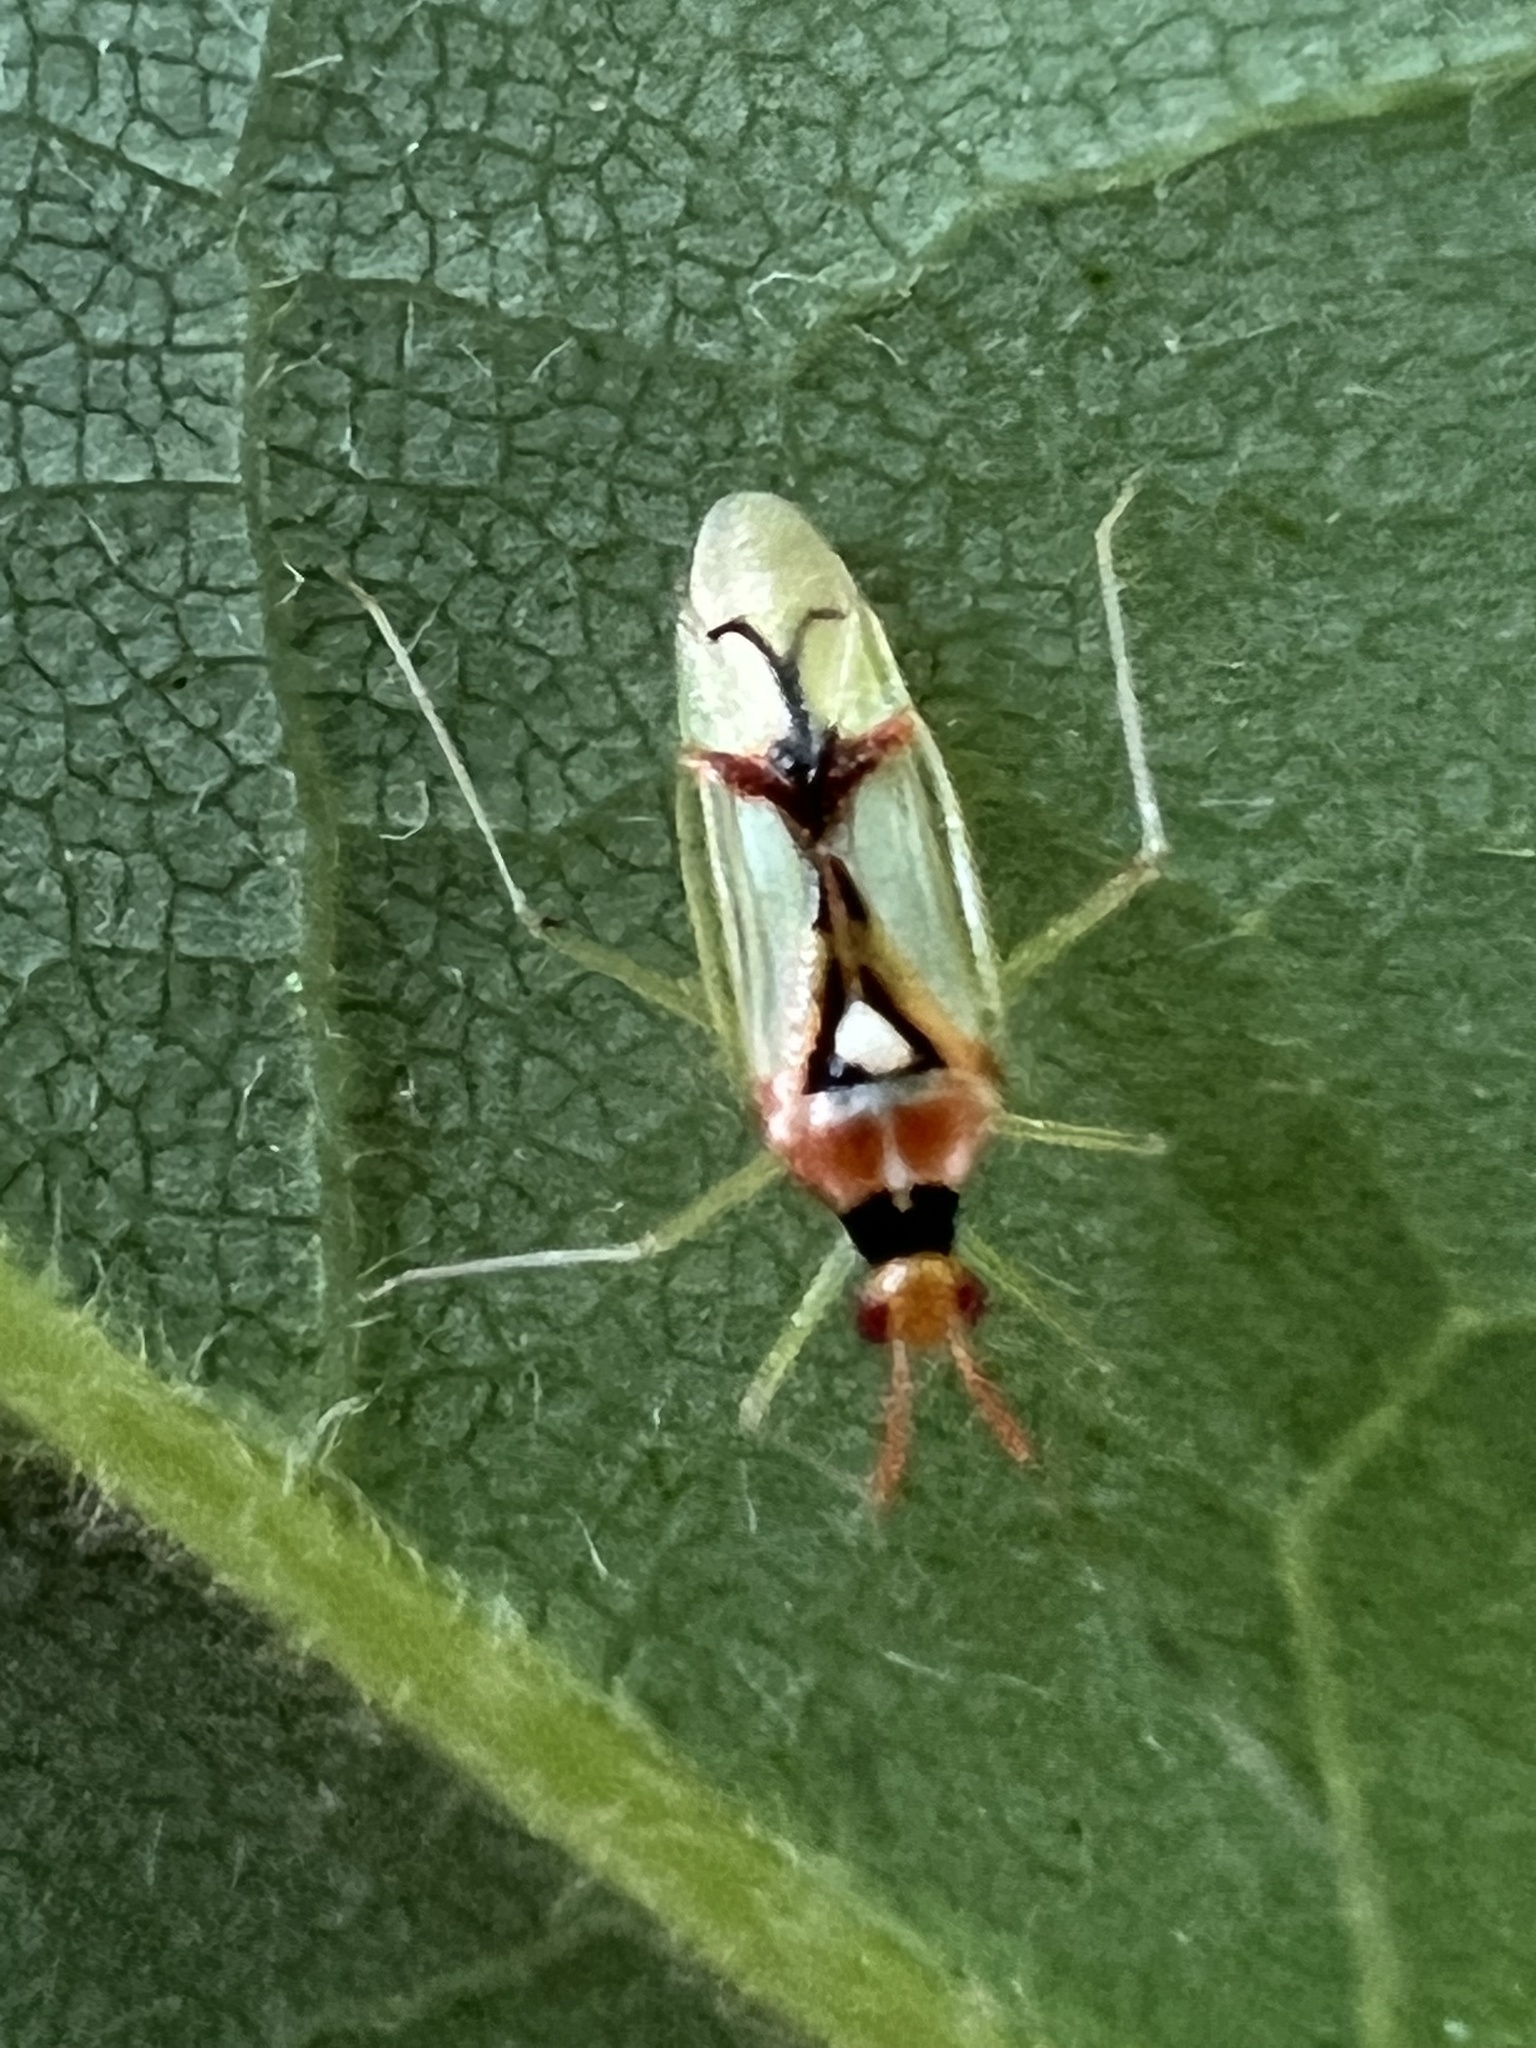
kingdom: Animalia
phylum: Arthropoda
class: Insecta
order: Hemiptera
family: Miridae
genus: Hyaliodes
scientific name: Hyaliodes harti
